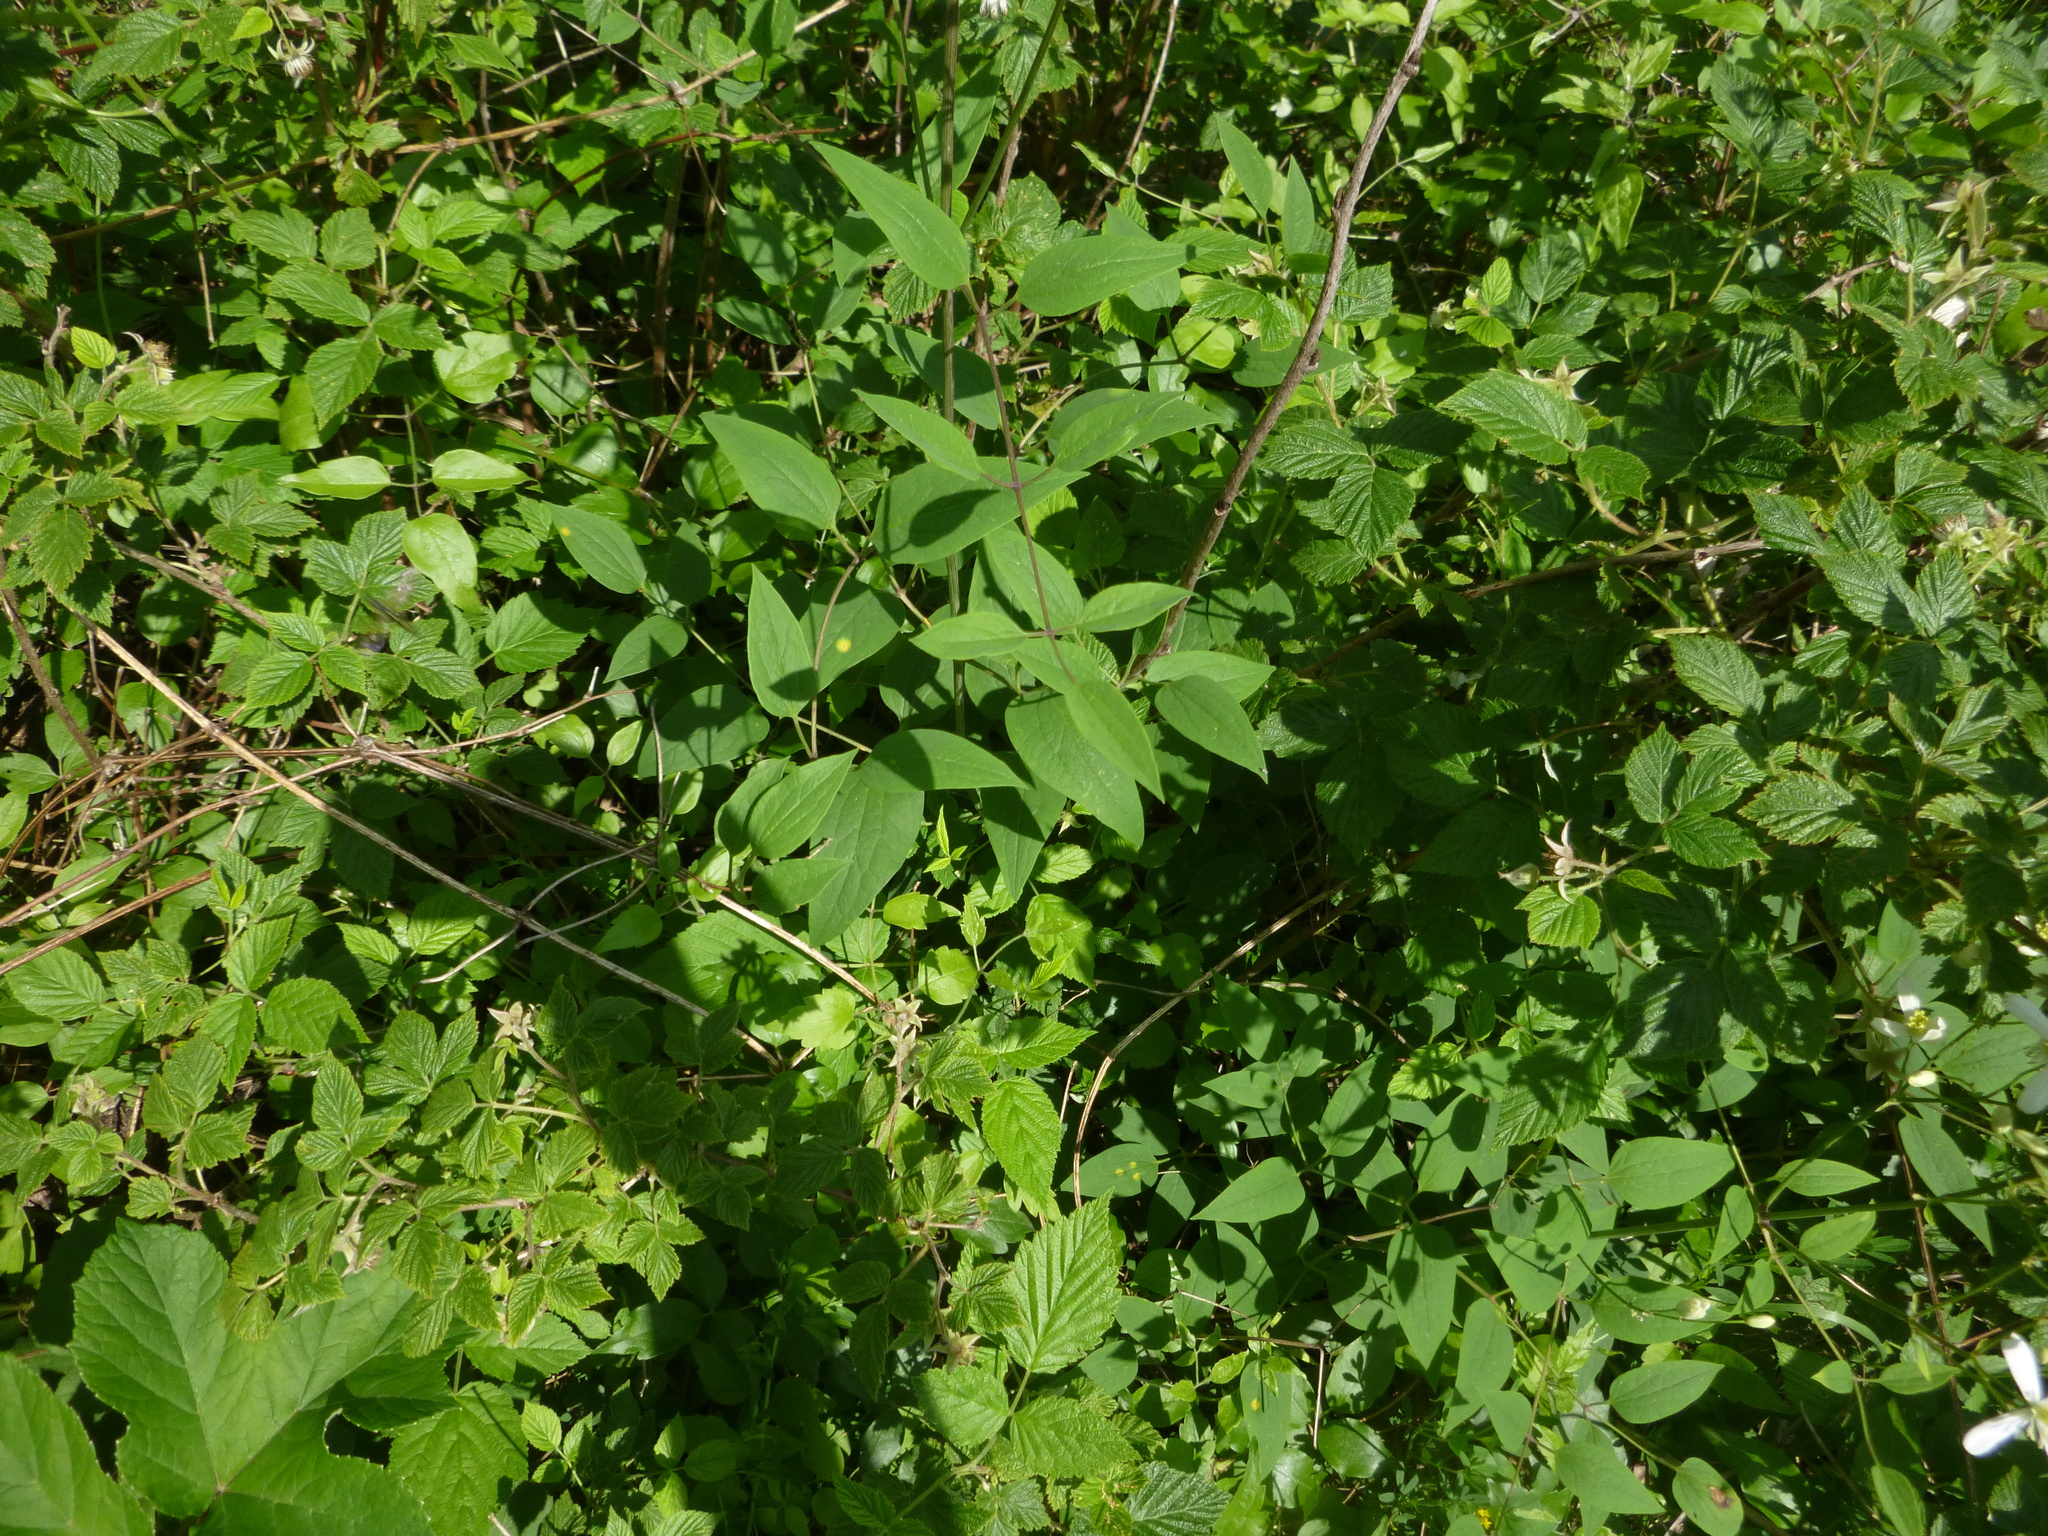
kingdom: Plantae
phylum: Tracheophyta
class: Magnoliopsida
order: Ranunculales
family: Ranunculaceae
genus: Clematis
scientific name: Clematis recta
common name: Ground clematis
